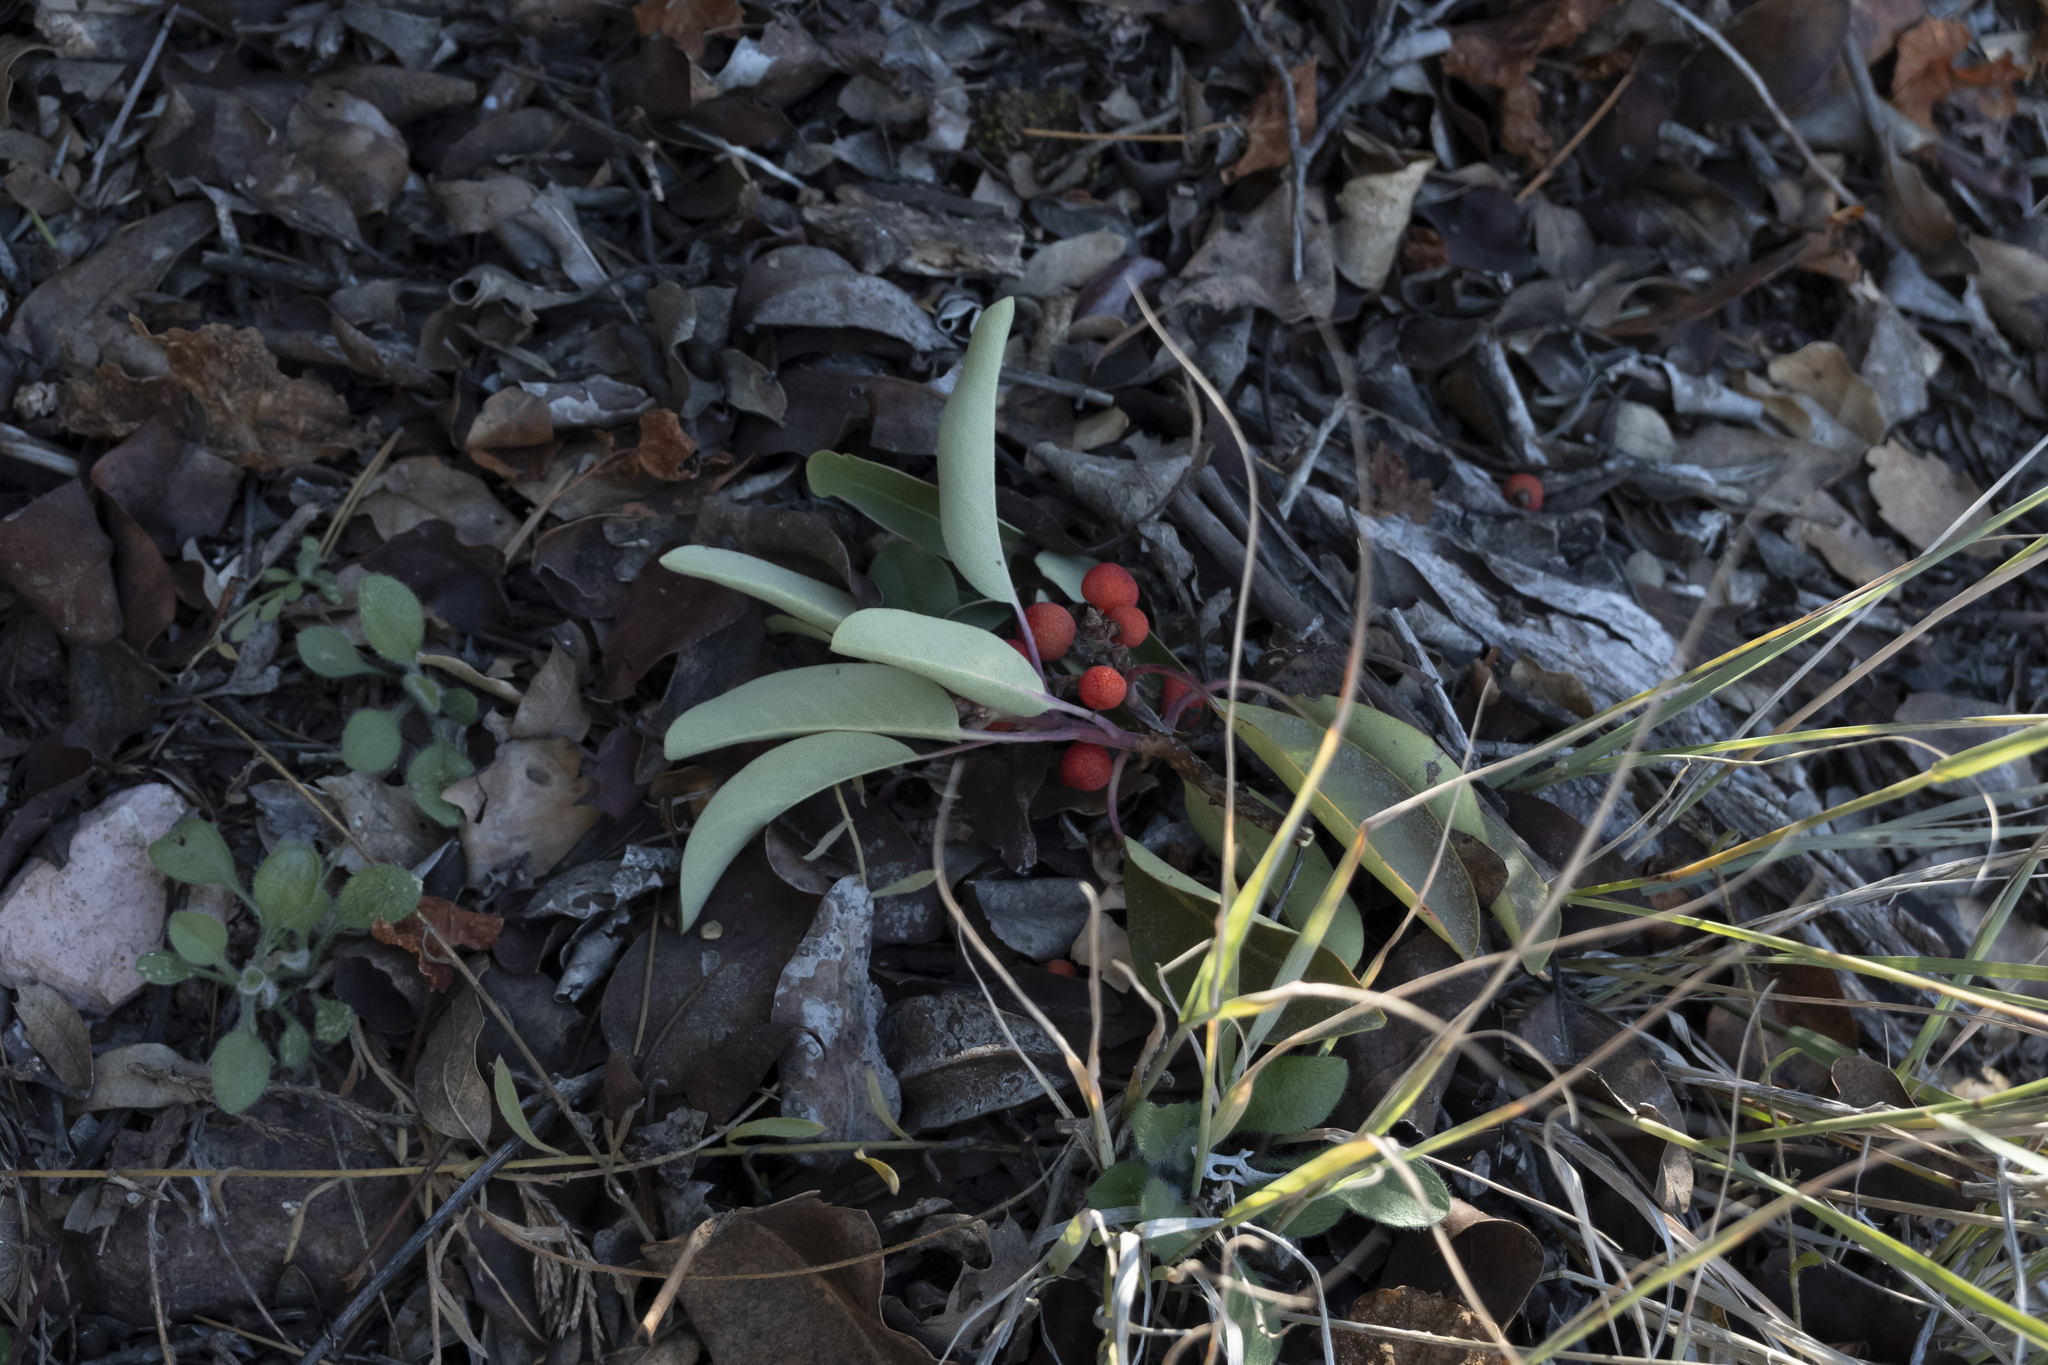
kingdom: Plantae
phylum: Tracheophyta
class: Magnoliopsida
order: Ericales
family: Ericaceae
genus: Arbutus
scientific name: Arbutus xalapensis
